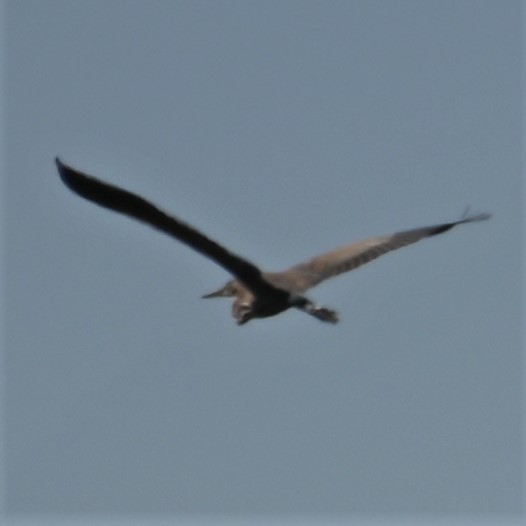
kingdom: Animalia
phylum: Chordata
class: Aves
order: Pelecaniformes
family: Ardeidae
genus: Ardea
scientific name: Ardea purpurea
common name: Purple heron
